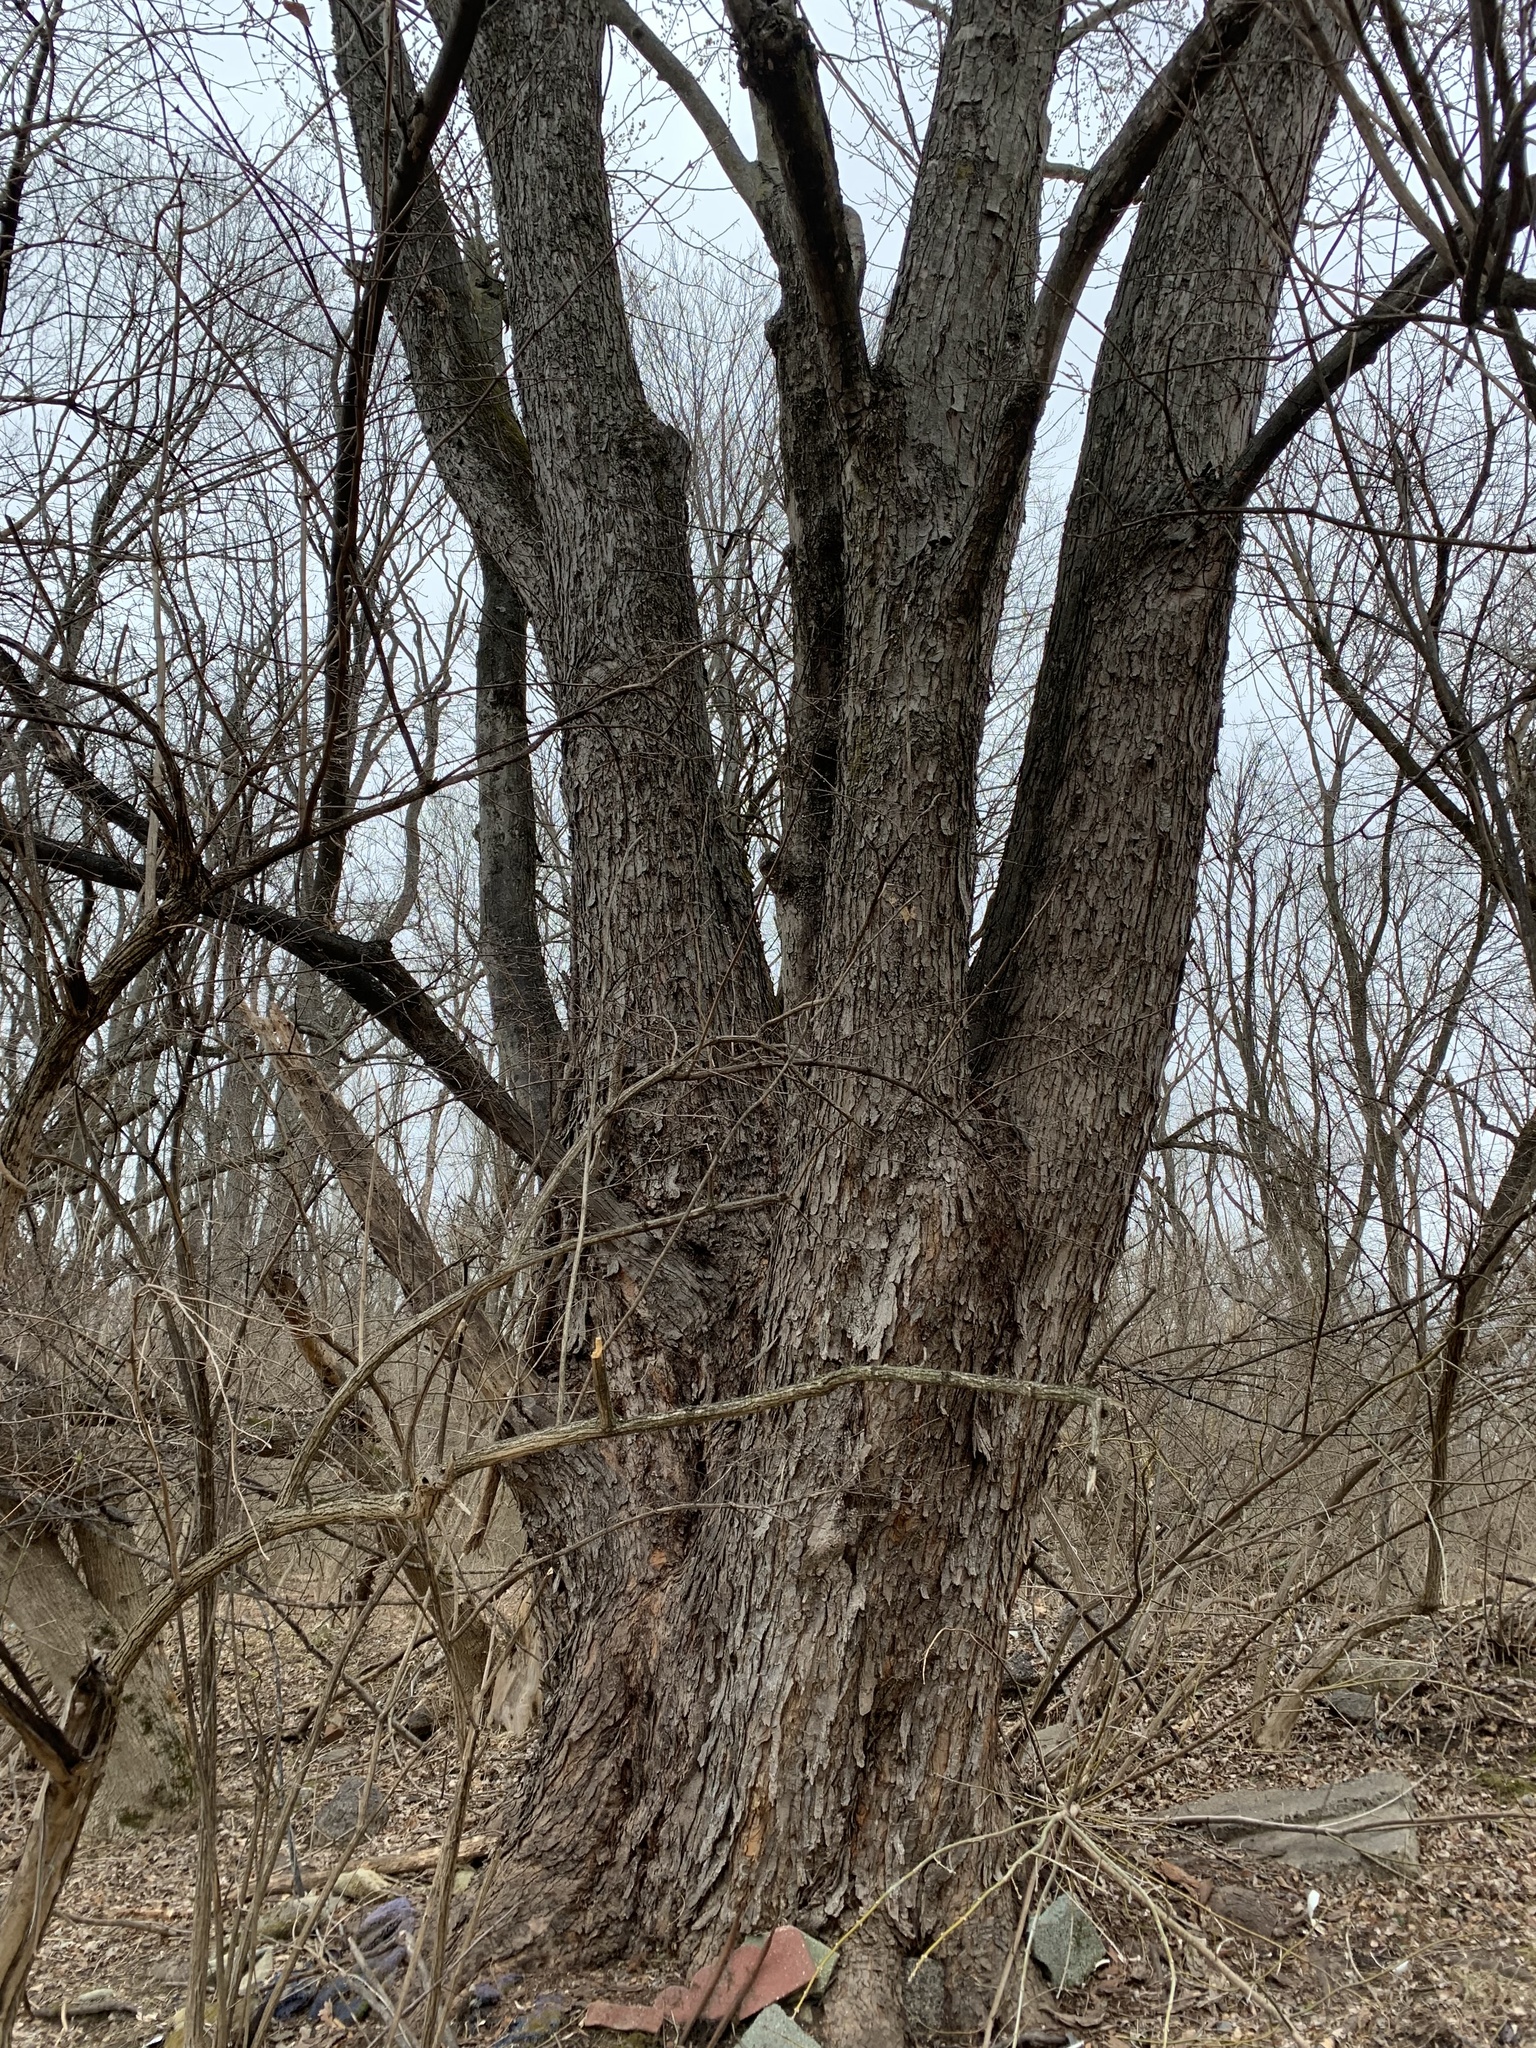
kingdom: Plantae
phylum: Tracheophyta
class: Magnoliopsida
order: Sapindales
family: Sapindaceae
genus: Acer
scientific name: Acer saccharinum
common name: Silver maple
